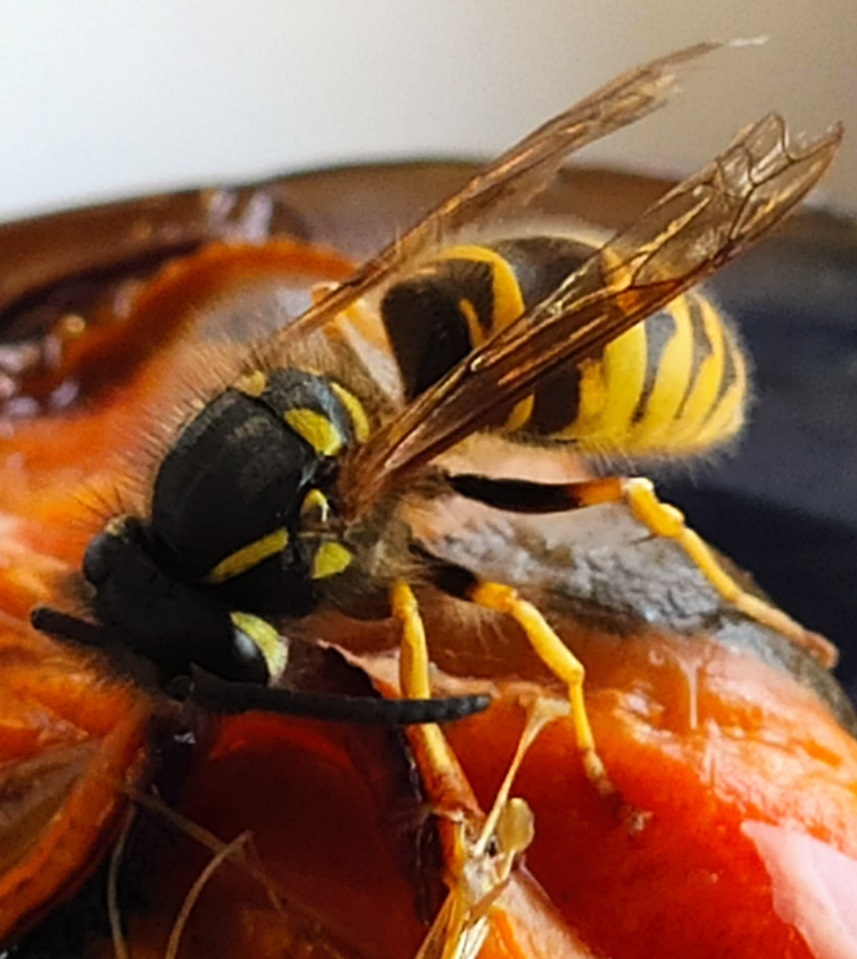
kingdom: Animalia
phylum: Arthropoda
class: Insecta
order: Hymenoptera
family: Vespidae
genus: Vespula
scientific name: Vespula vulgaris
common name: Common wasp
